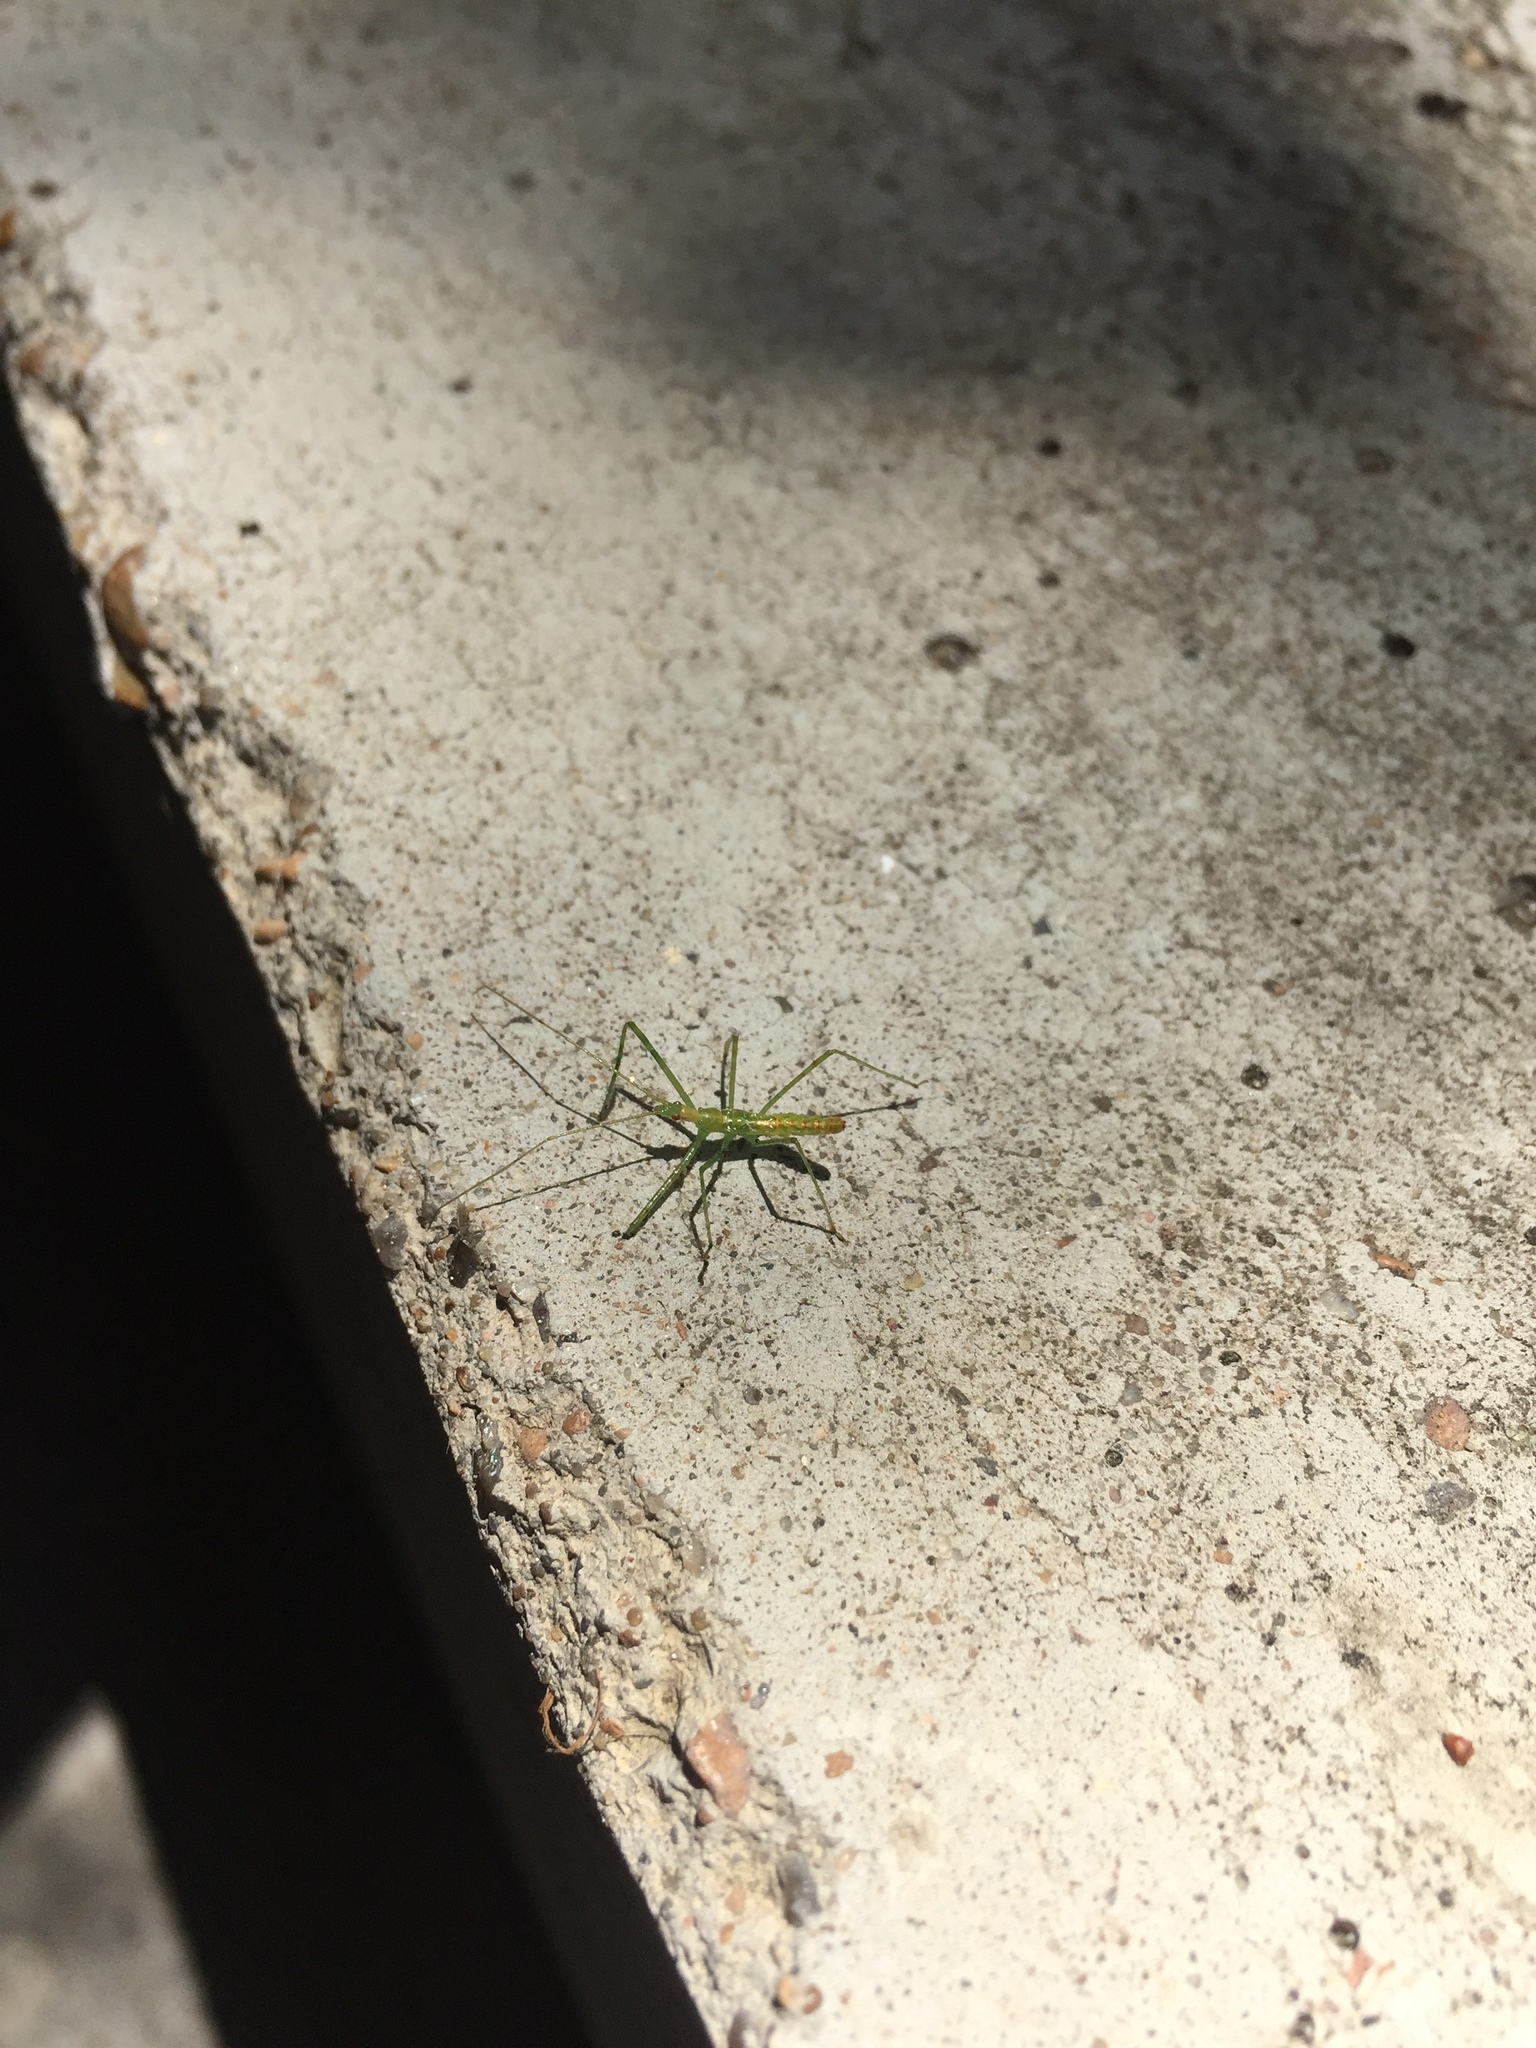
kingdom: Animalia
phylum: Arthropoda
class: Insecta
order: Hemiptera
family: Reduviidae
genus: Zelus
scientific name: Zelus luridus
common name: Pale green assassin bug
